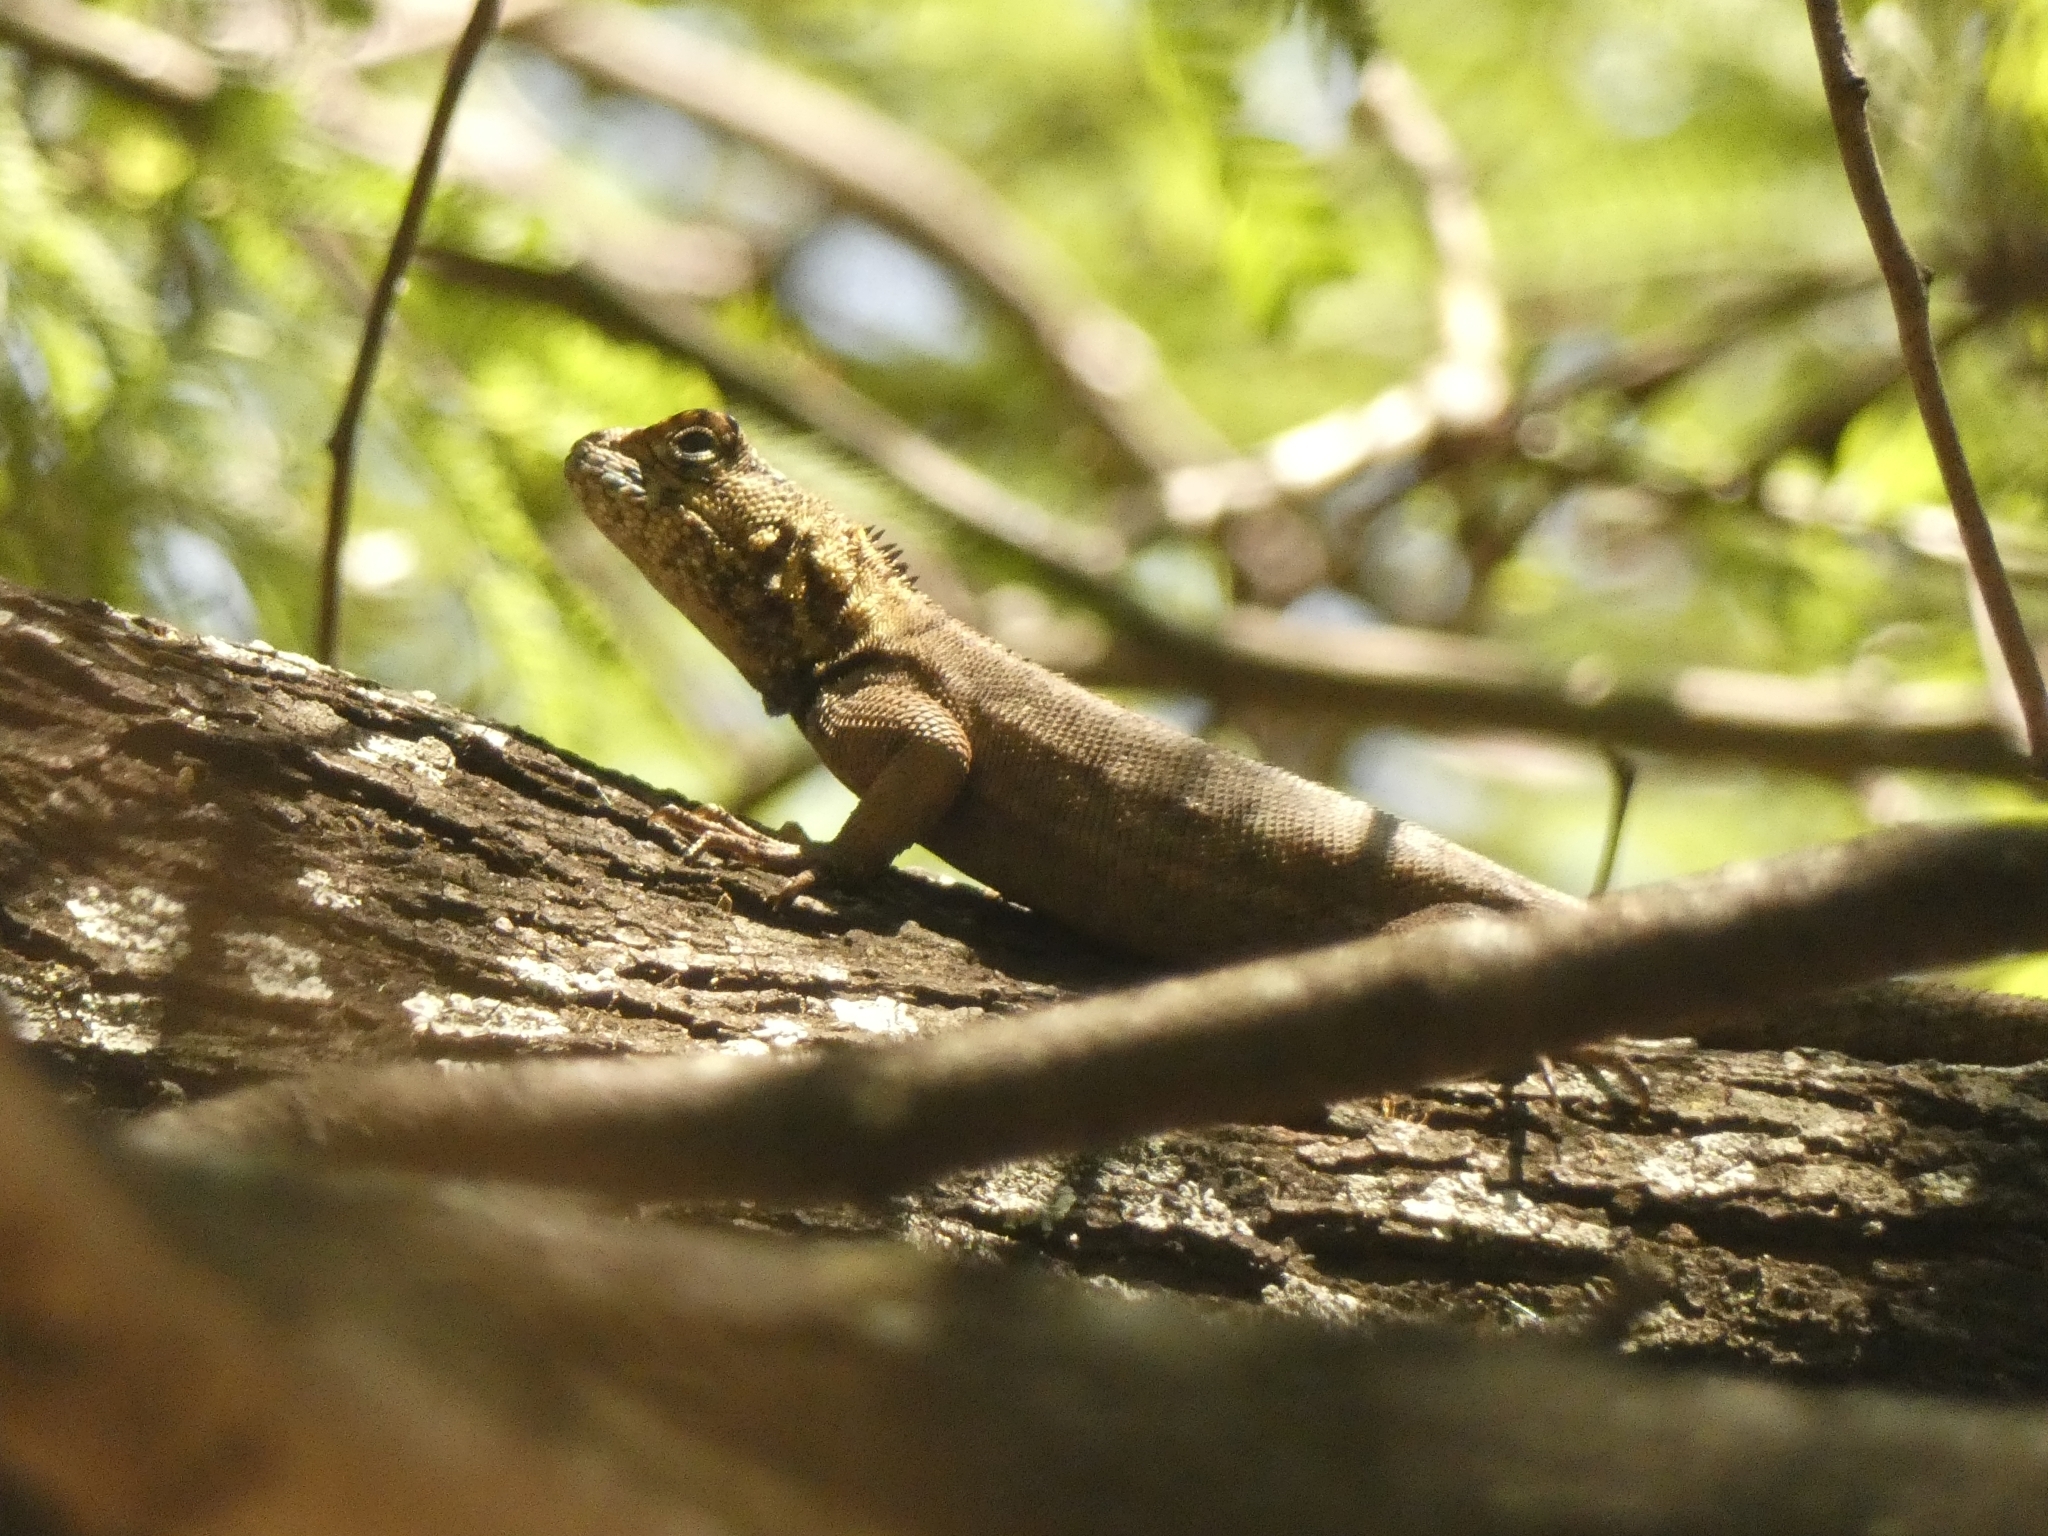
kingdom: Animalia
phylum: Chordata
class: Squamata
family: Tropiduridae
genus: Tropidurus
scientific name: Tropidurus spinulosus
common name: Spiny lava lizard
